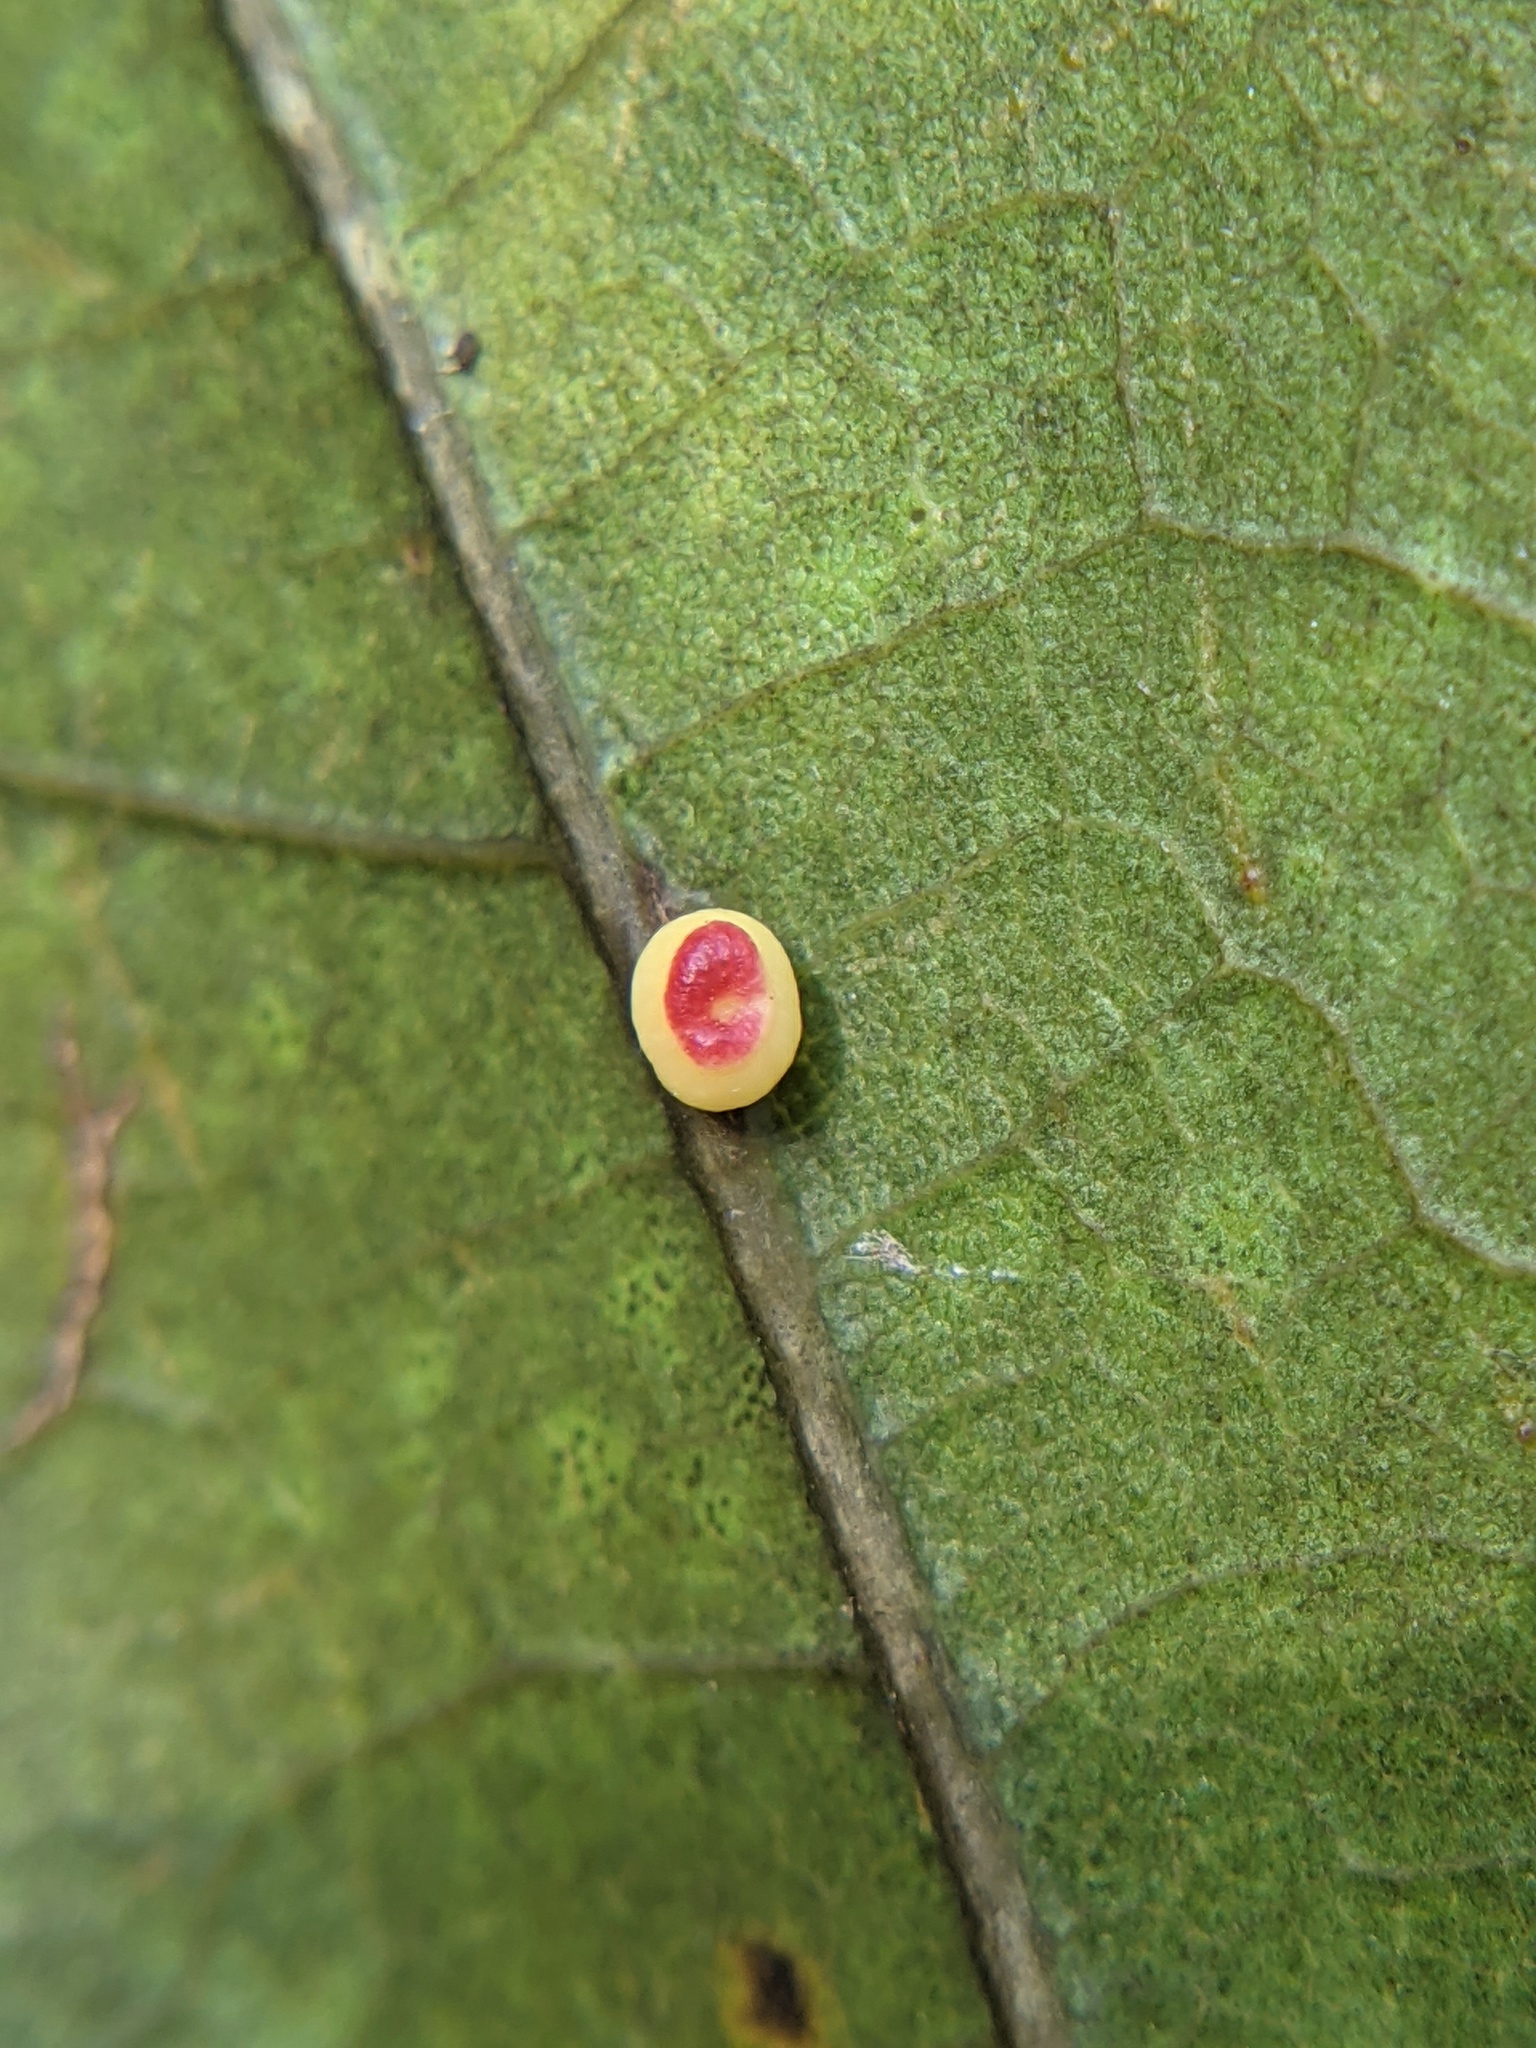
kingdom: Animalia
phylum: Arthropoda
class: Insecta
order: Hymenoptera
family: Cynipidae
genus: Kokkocynips
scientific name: Kokkocynips rileyi
